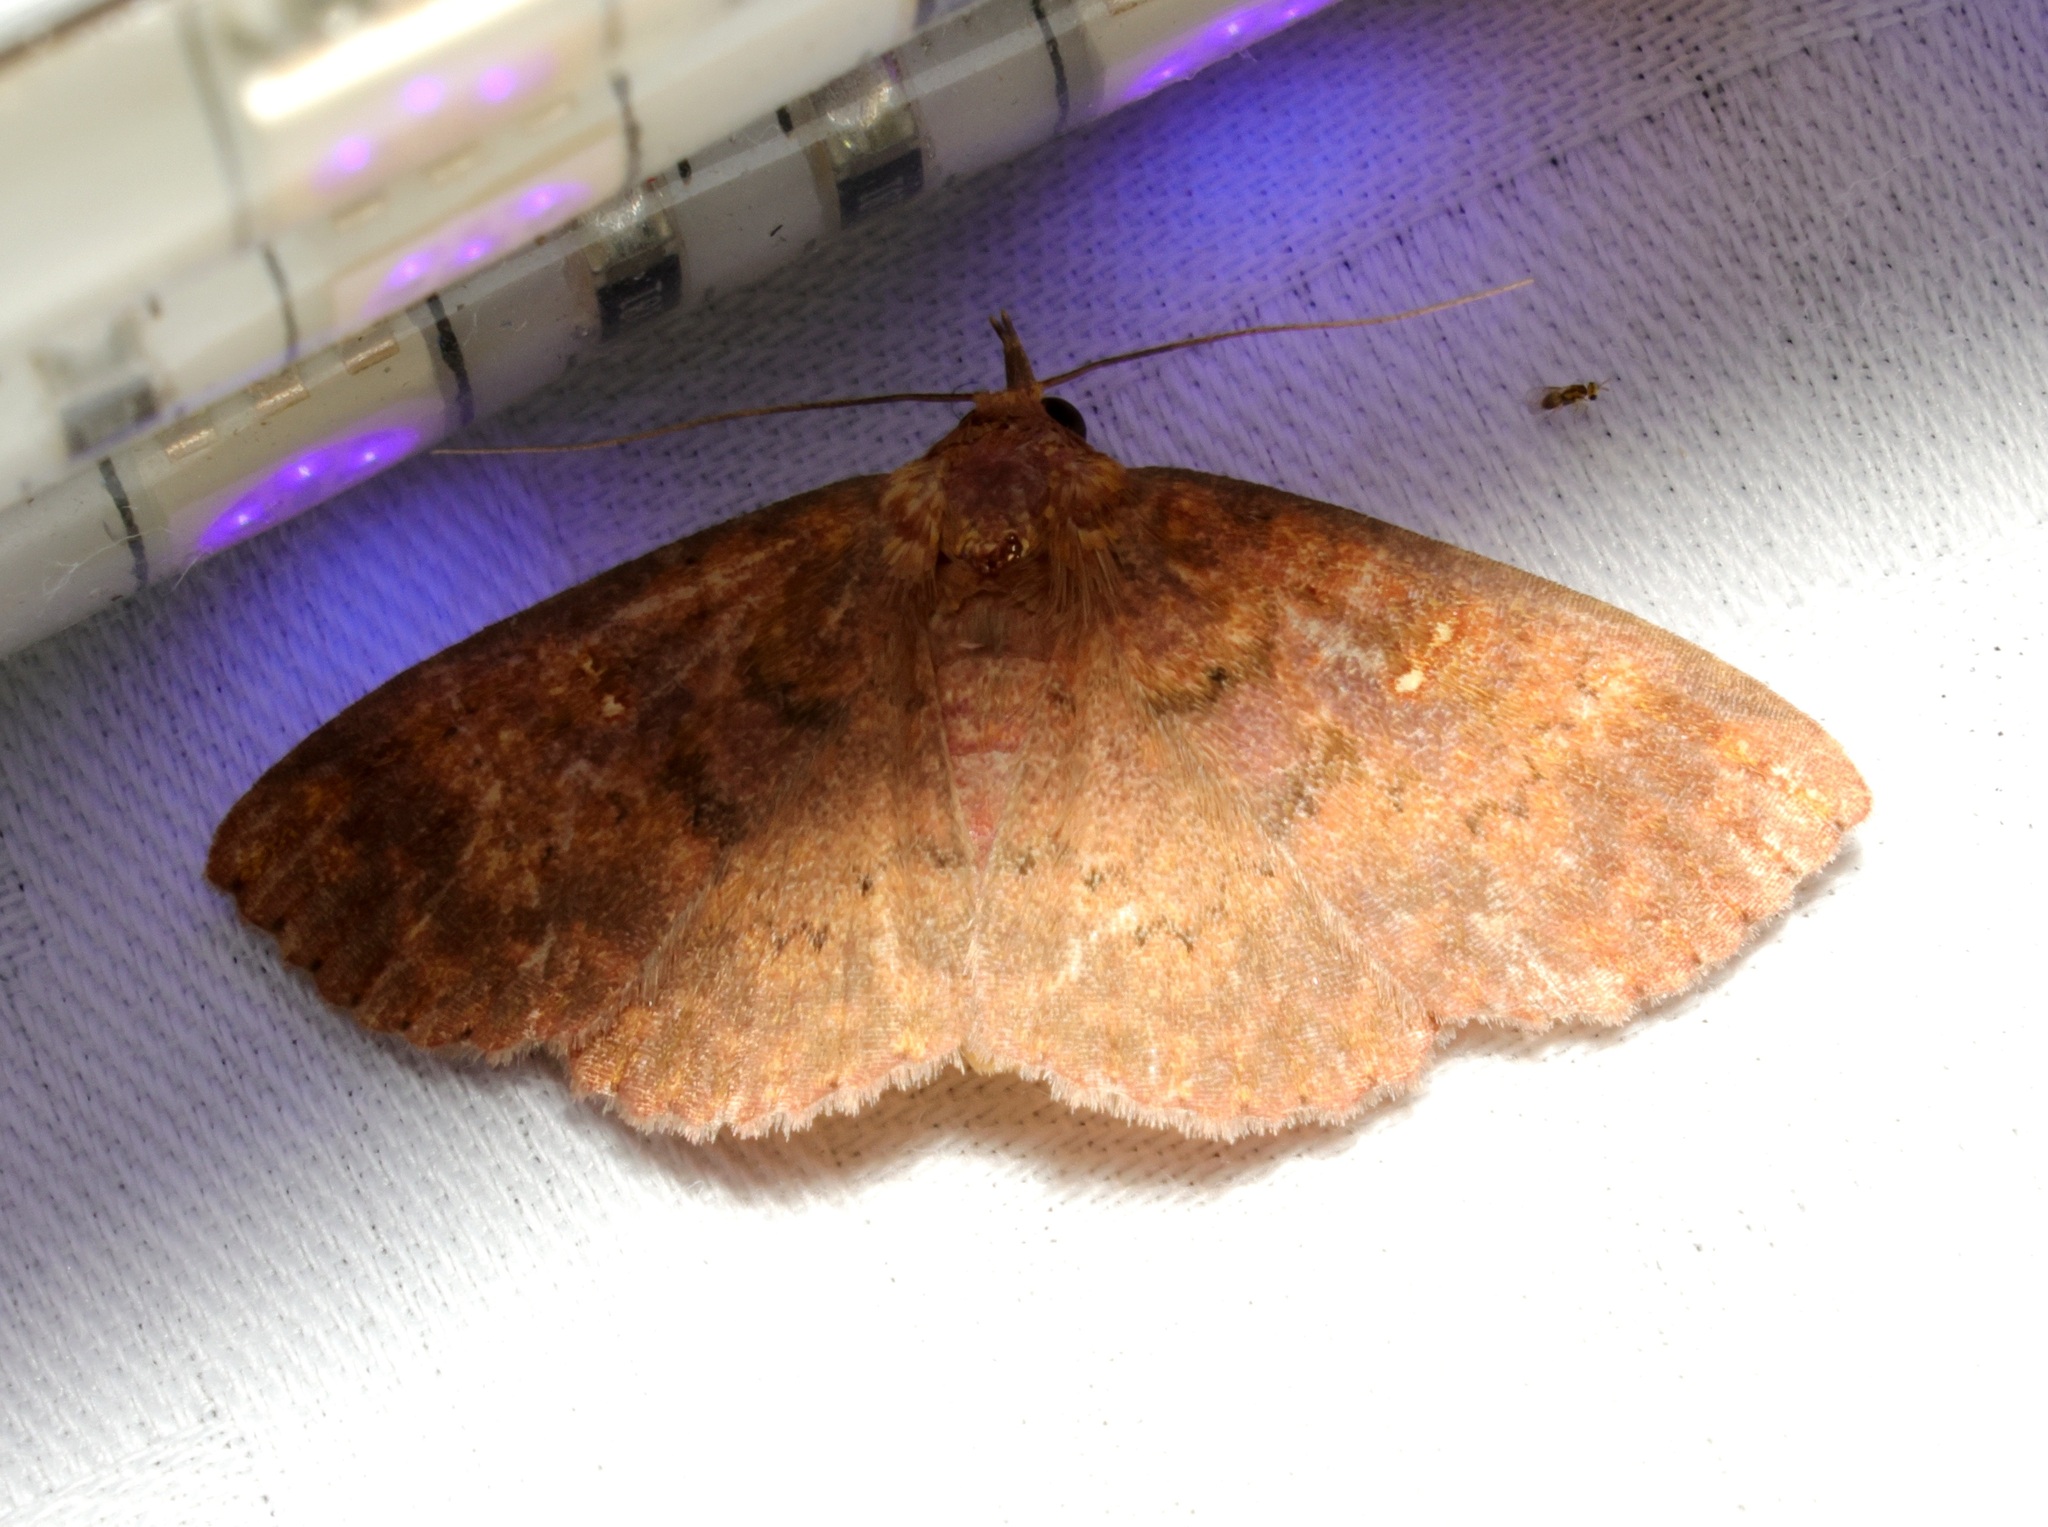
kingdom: Animalia
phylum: Arthropoda
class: Insecta
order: Lepidoptera
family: Erebidae
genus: Sarobides
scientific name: Sarobides inconclusa
